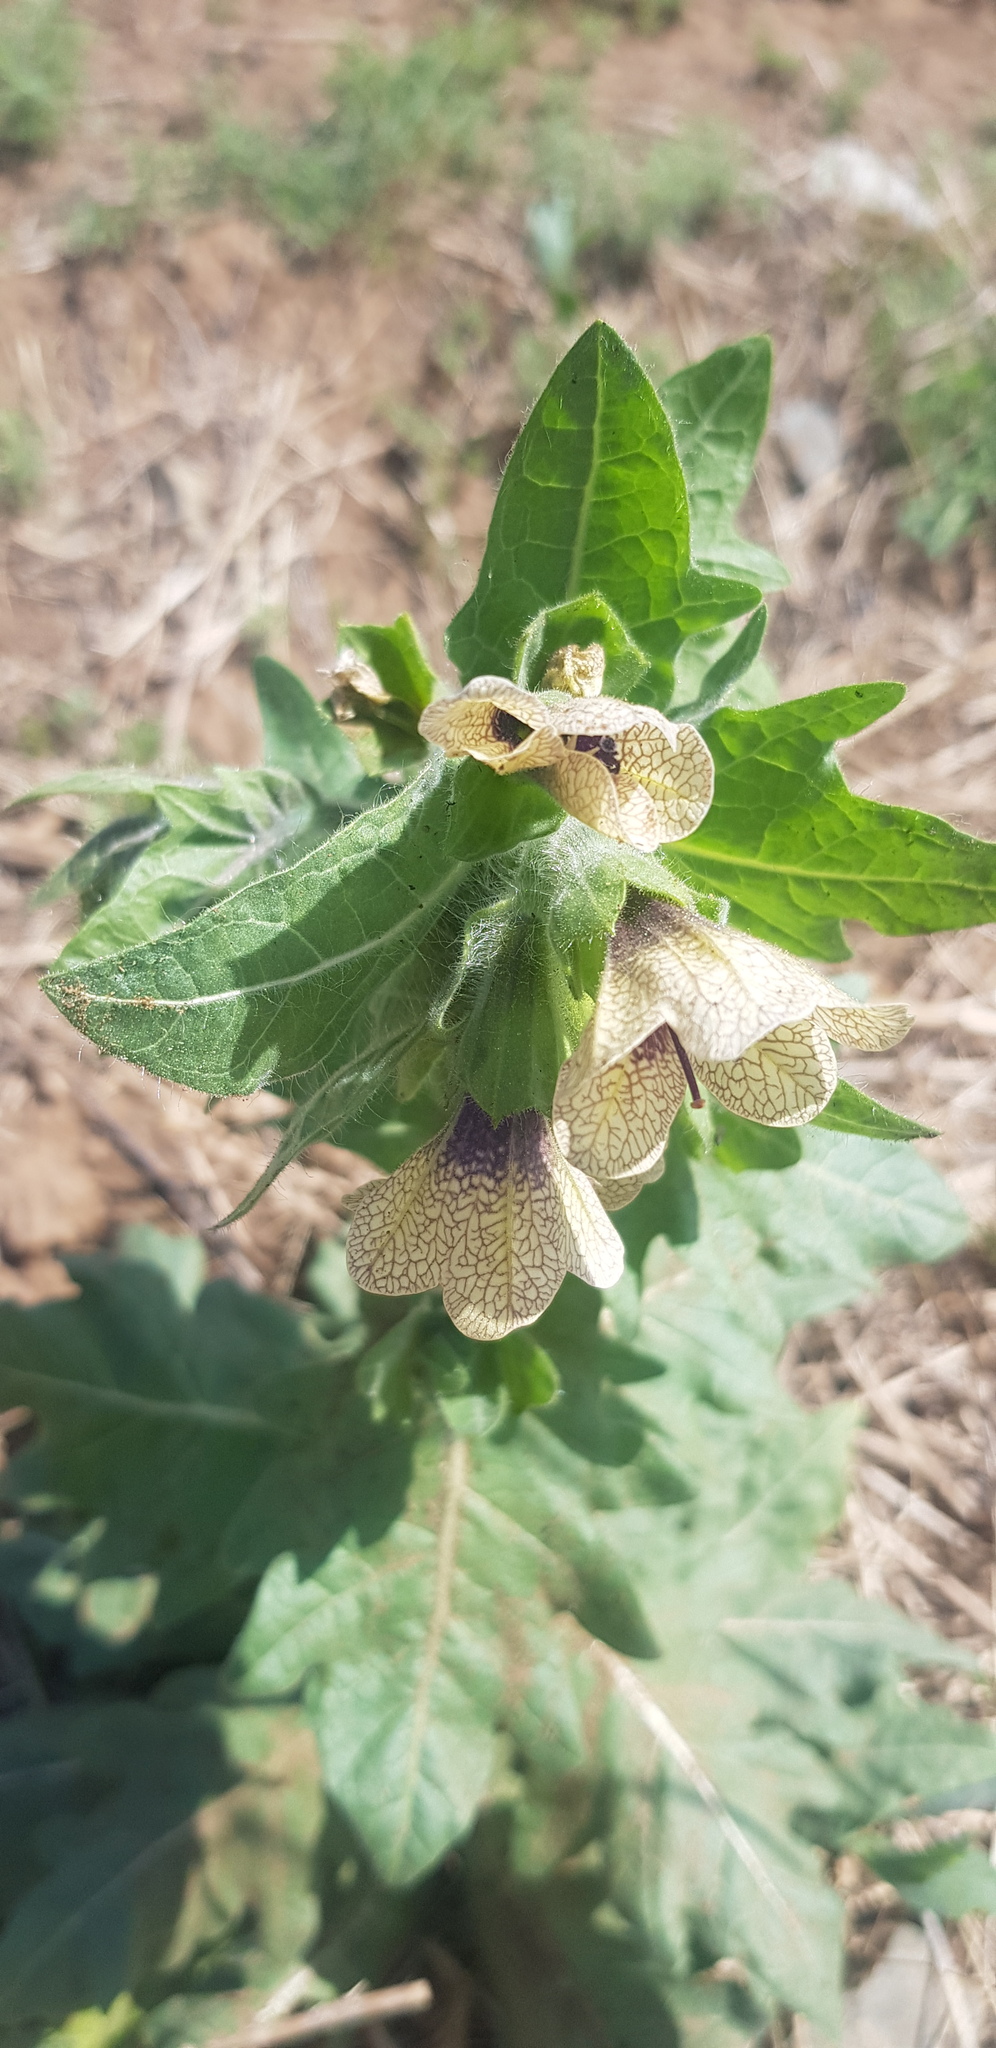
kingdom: Plantae
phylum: Tracheophyta
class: Magnoliopsida
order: Solanales
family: Solanaceae
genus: Hyoscyamus
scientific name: Hyoscyamus niger
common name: Henbane
